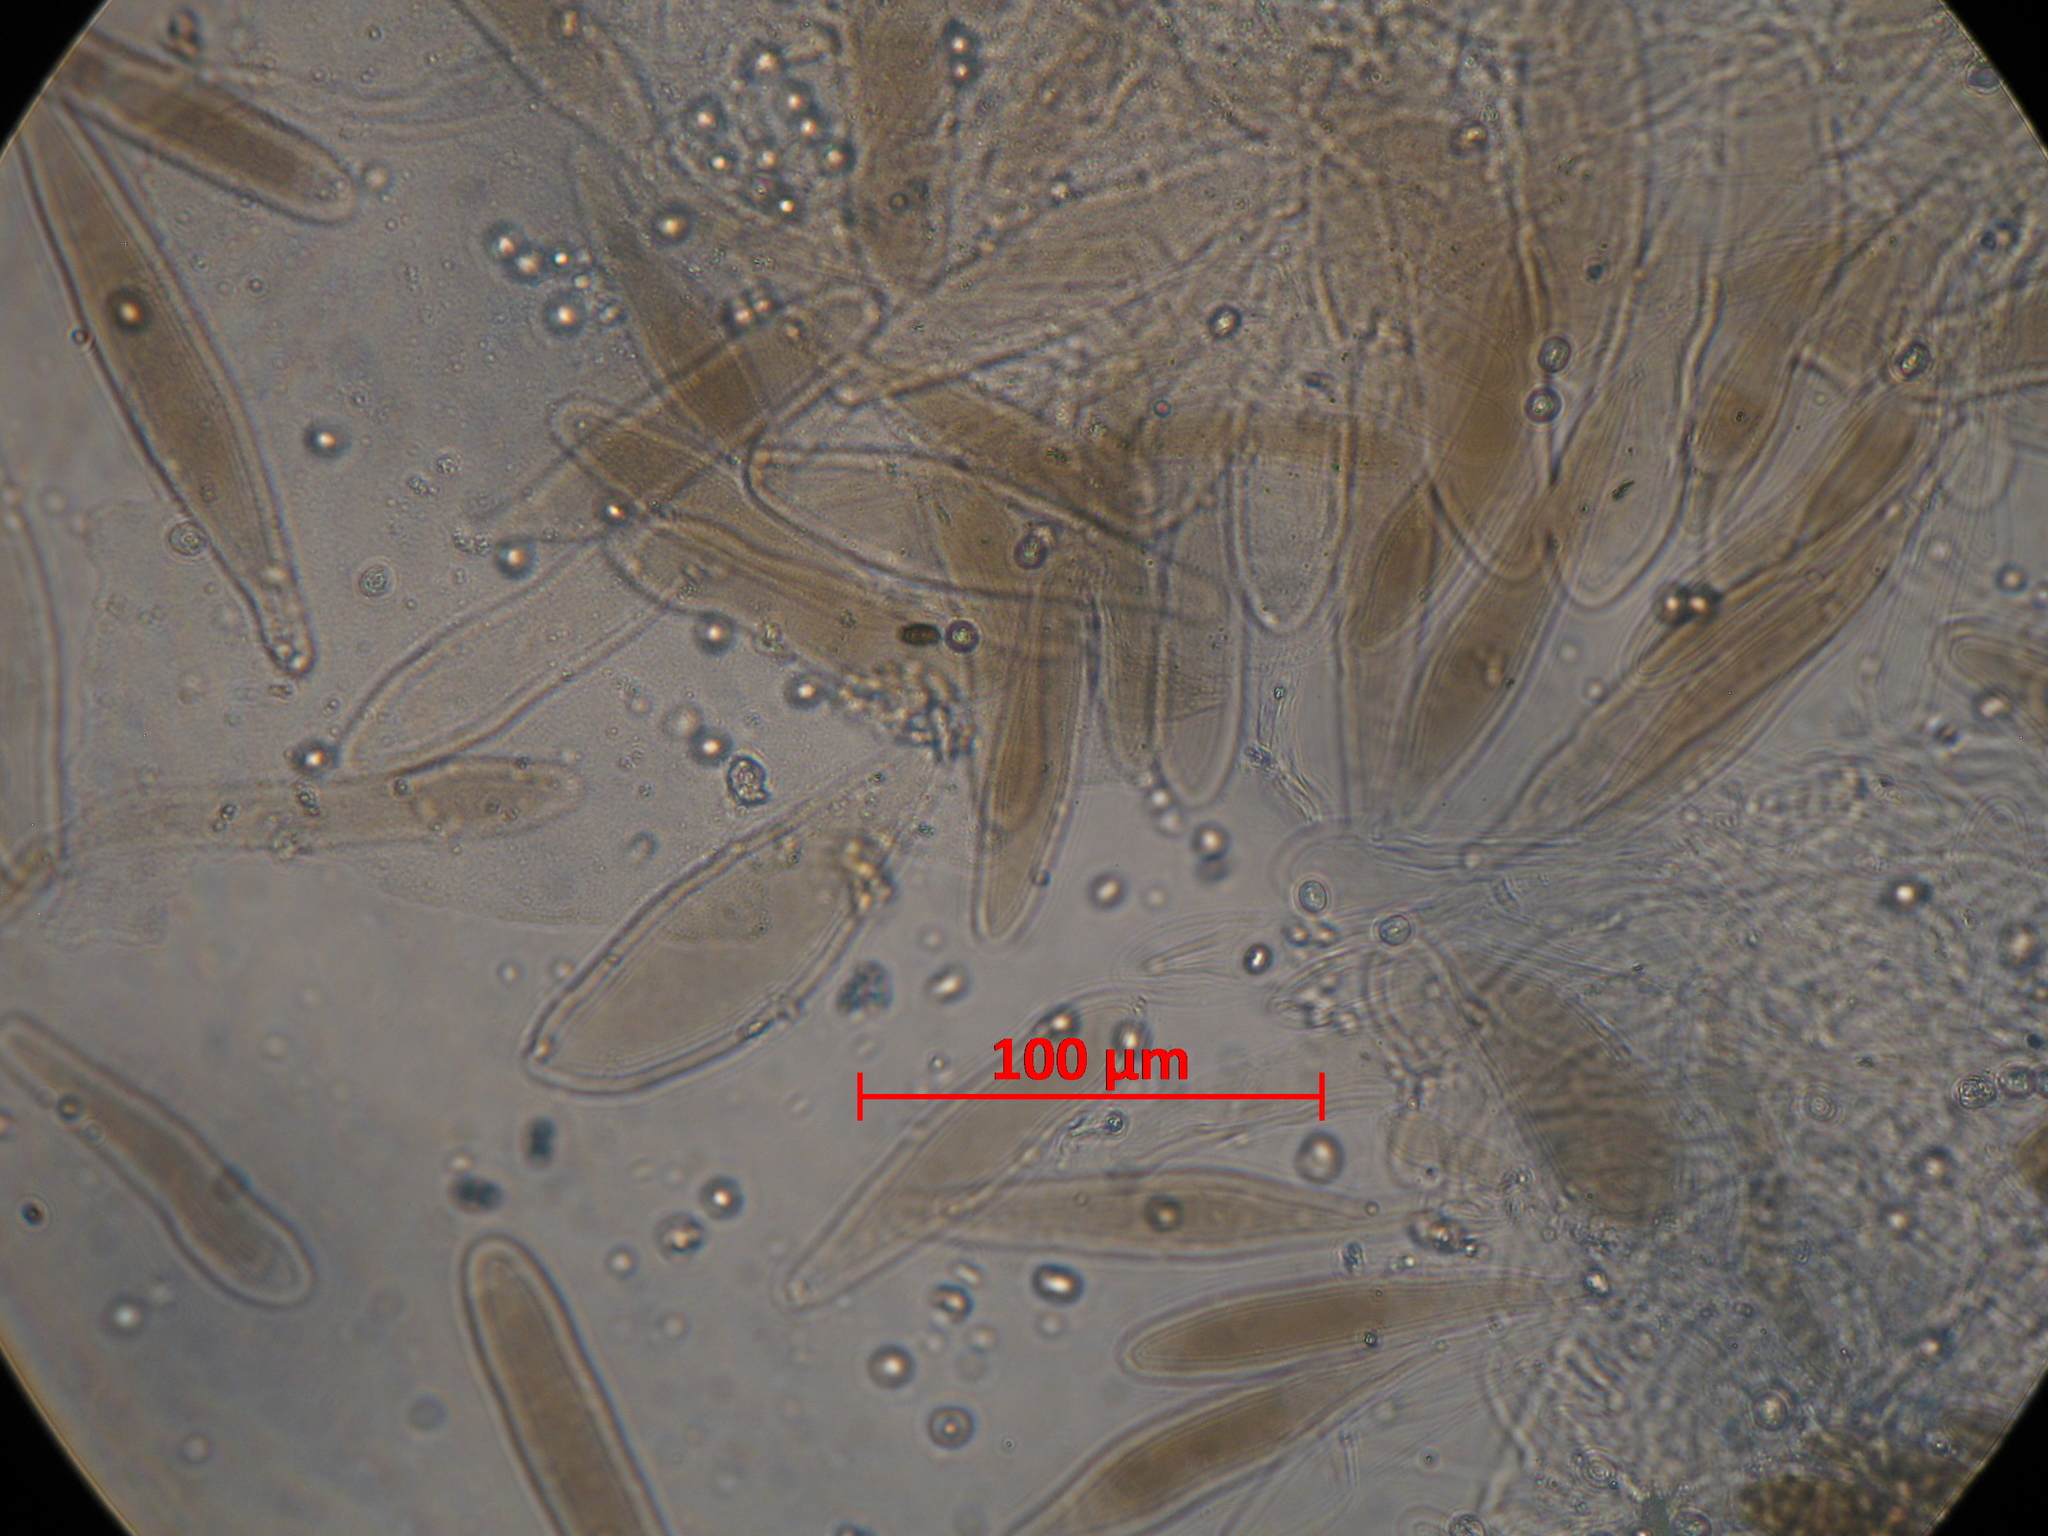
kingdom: Fungi
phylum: Basidiomycota
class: Agaricomycetes
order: Agaricales
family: Pluteaceae
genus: Pluteus
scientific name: Pluteus readiarum
